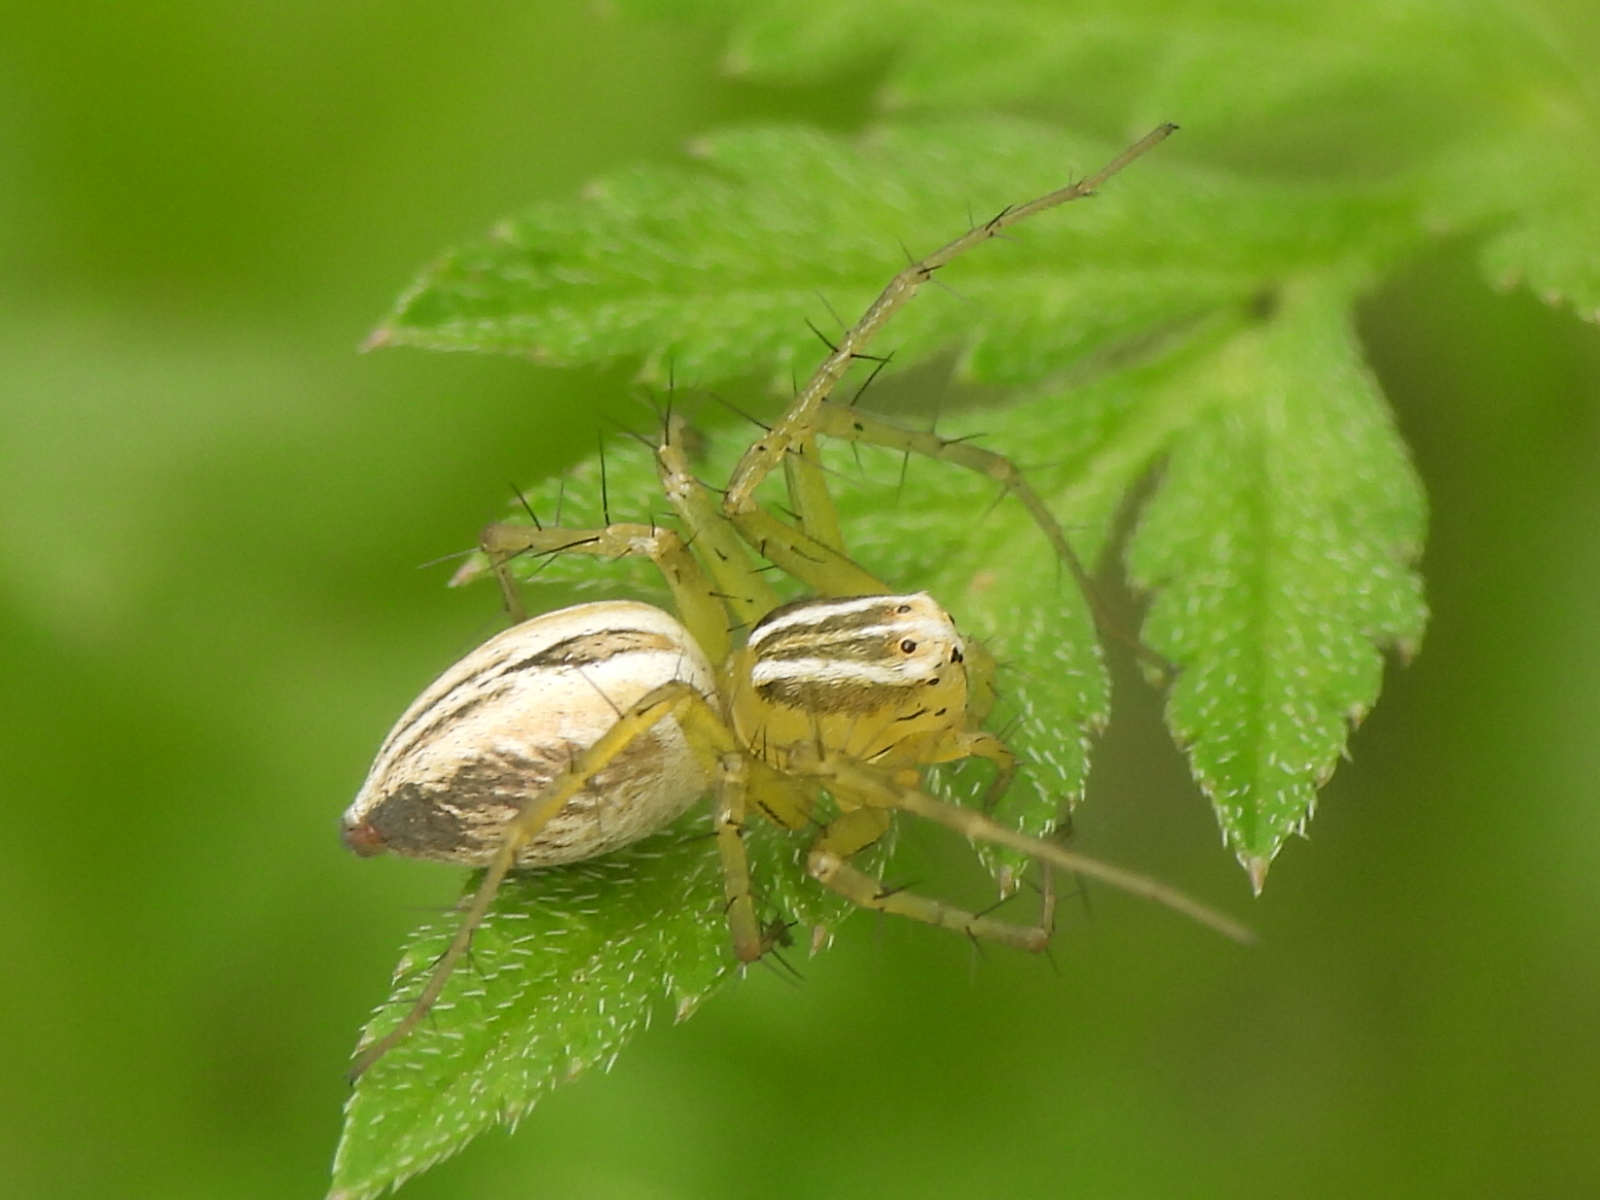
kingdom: Animalia
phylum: Arthropoda
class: Arachnida
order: Araneae
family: Oxyopidae
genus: Oxyopes
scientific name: Oxyopes salticus
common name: Lynx spiders
